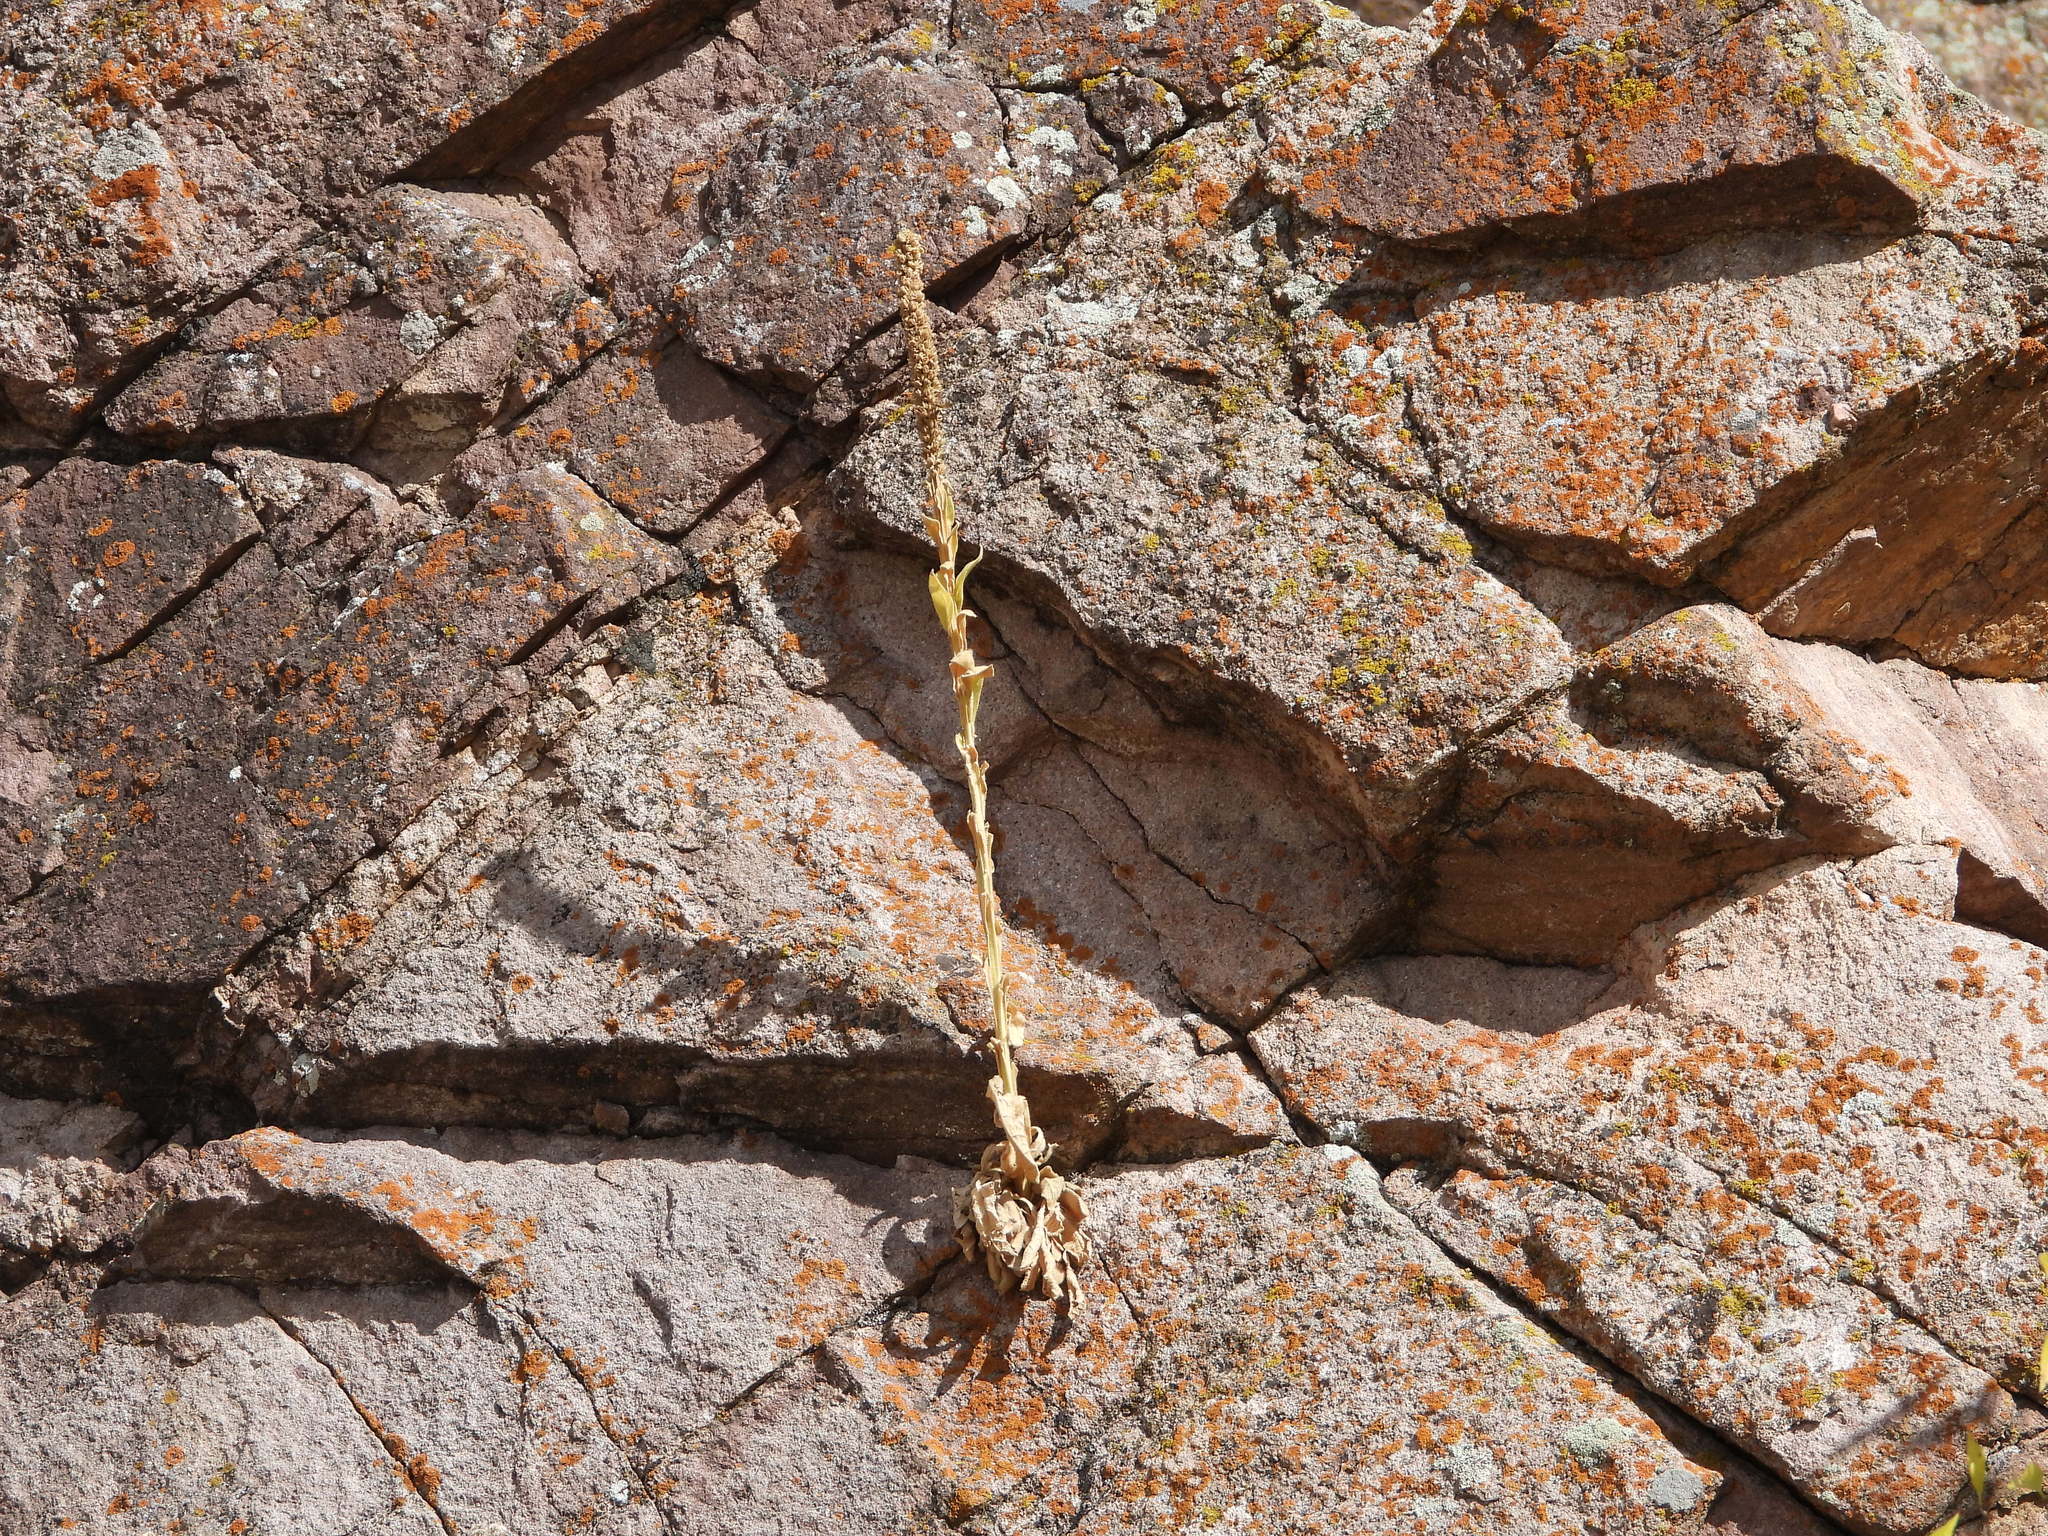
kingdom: Plantae
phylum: Tracheophyta
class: Magnoliopsida
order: Lamiales
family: Scrophulariaceae
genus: Verbascum
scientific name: Verbascum thapsus
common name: Common mullein
